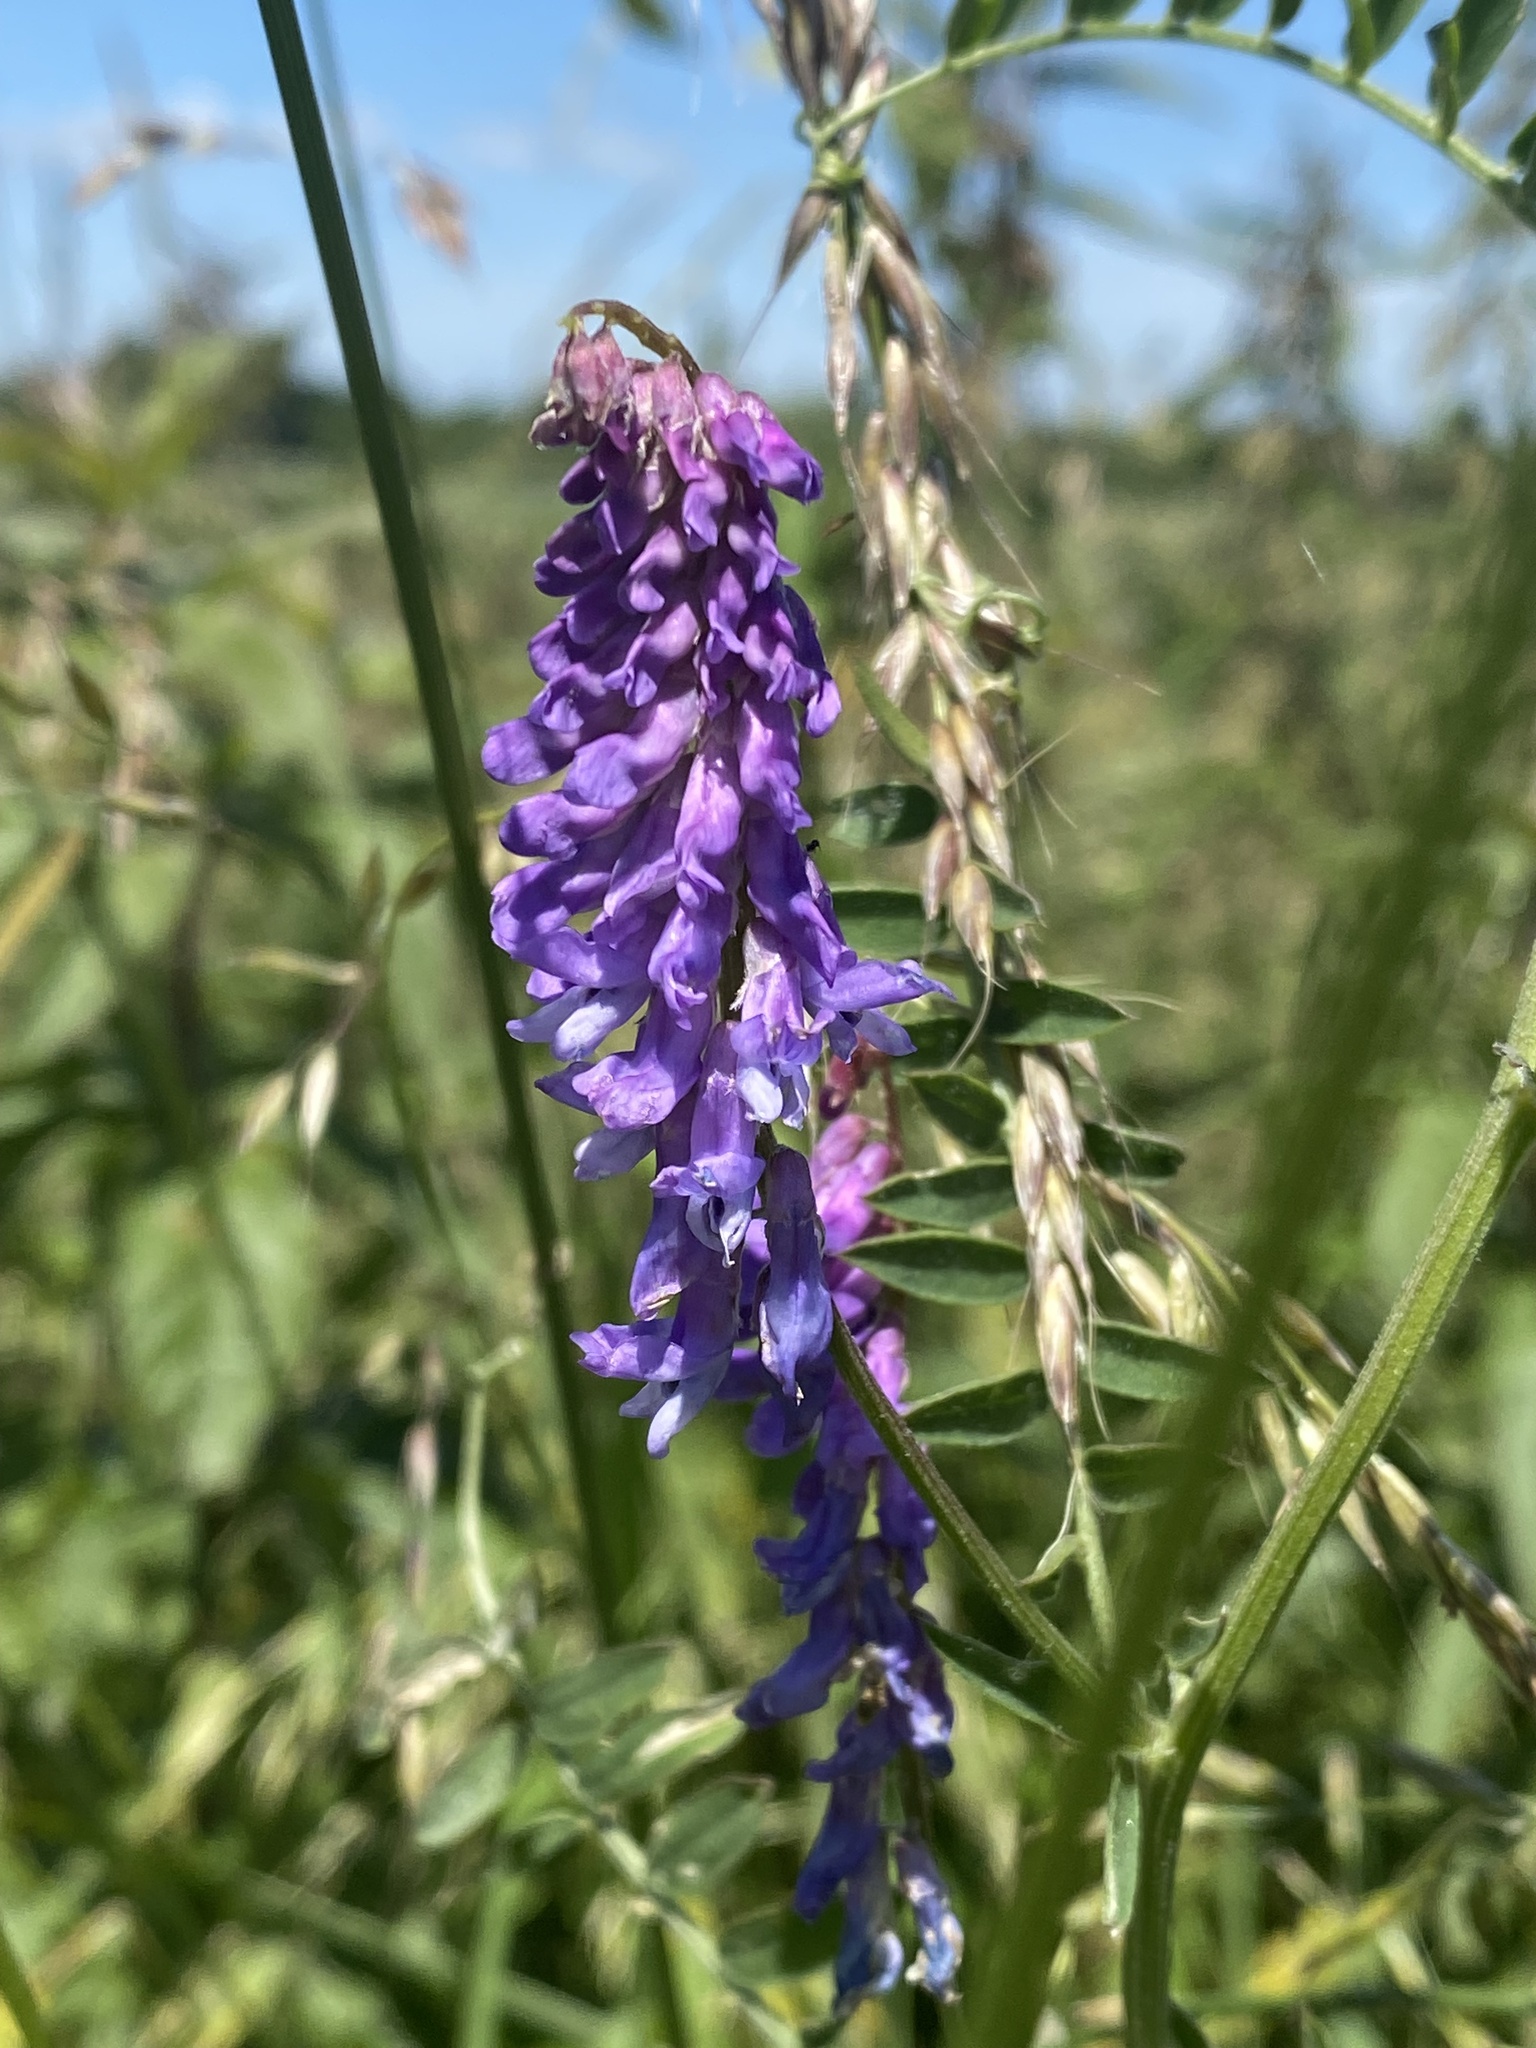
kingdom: Plantae
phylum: Tracheophyta
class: Magnoliopsida
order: Fabales
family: Fabaceae
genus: Vicia
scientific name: Vicia cracca
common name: Bird vetch
